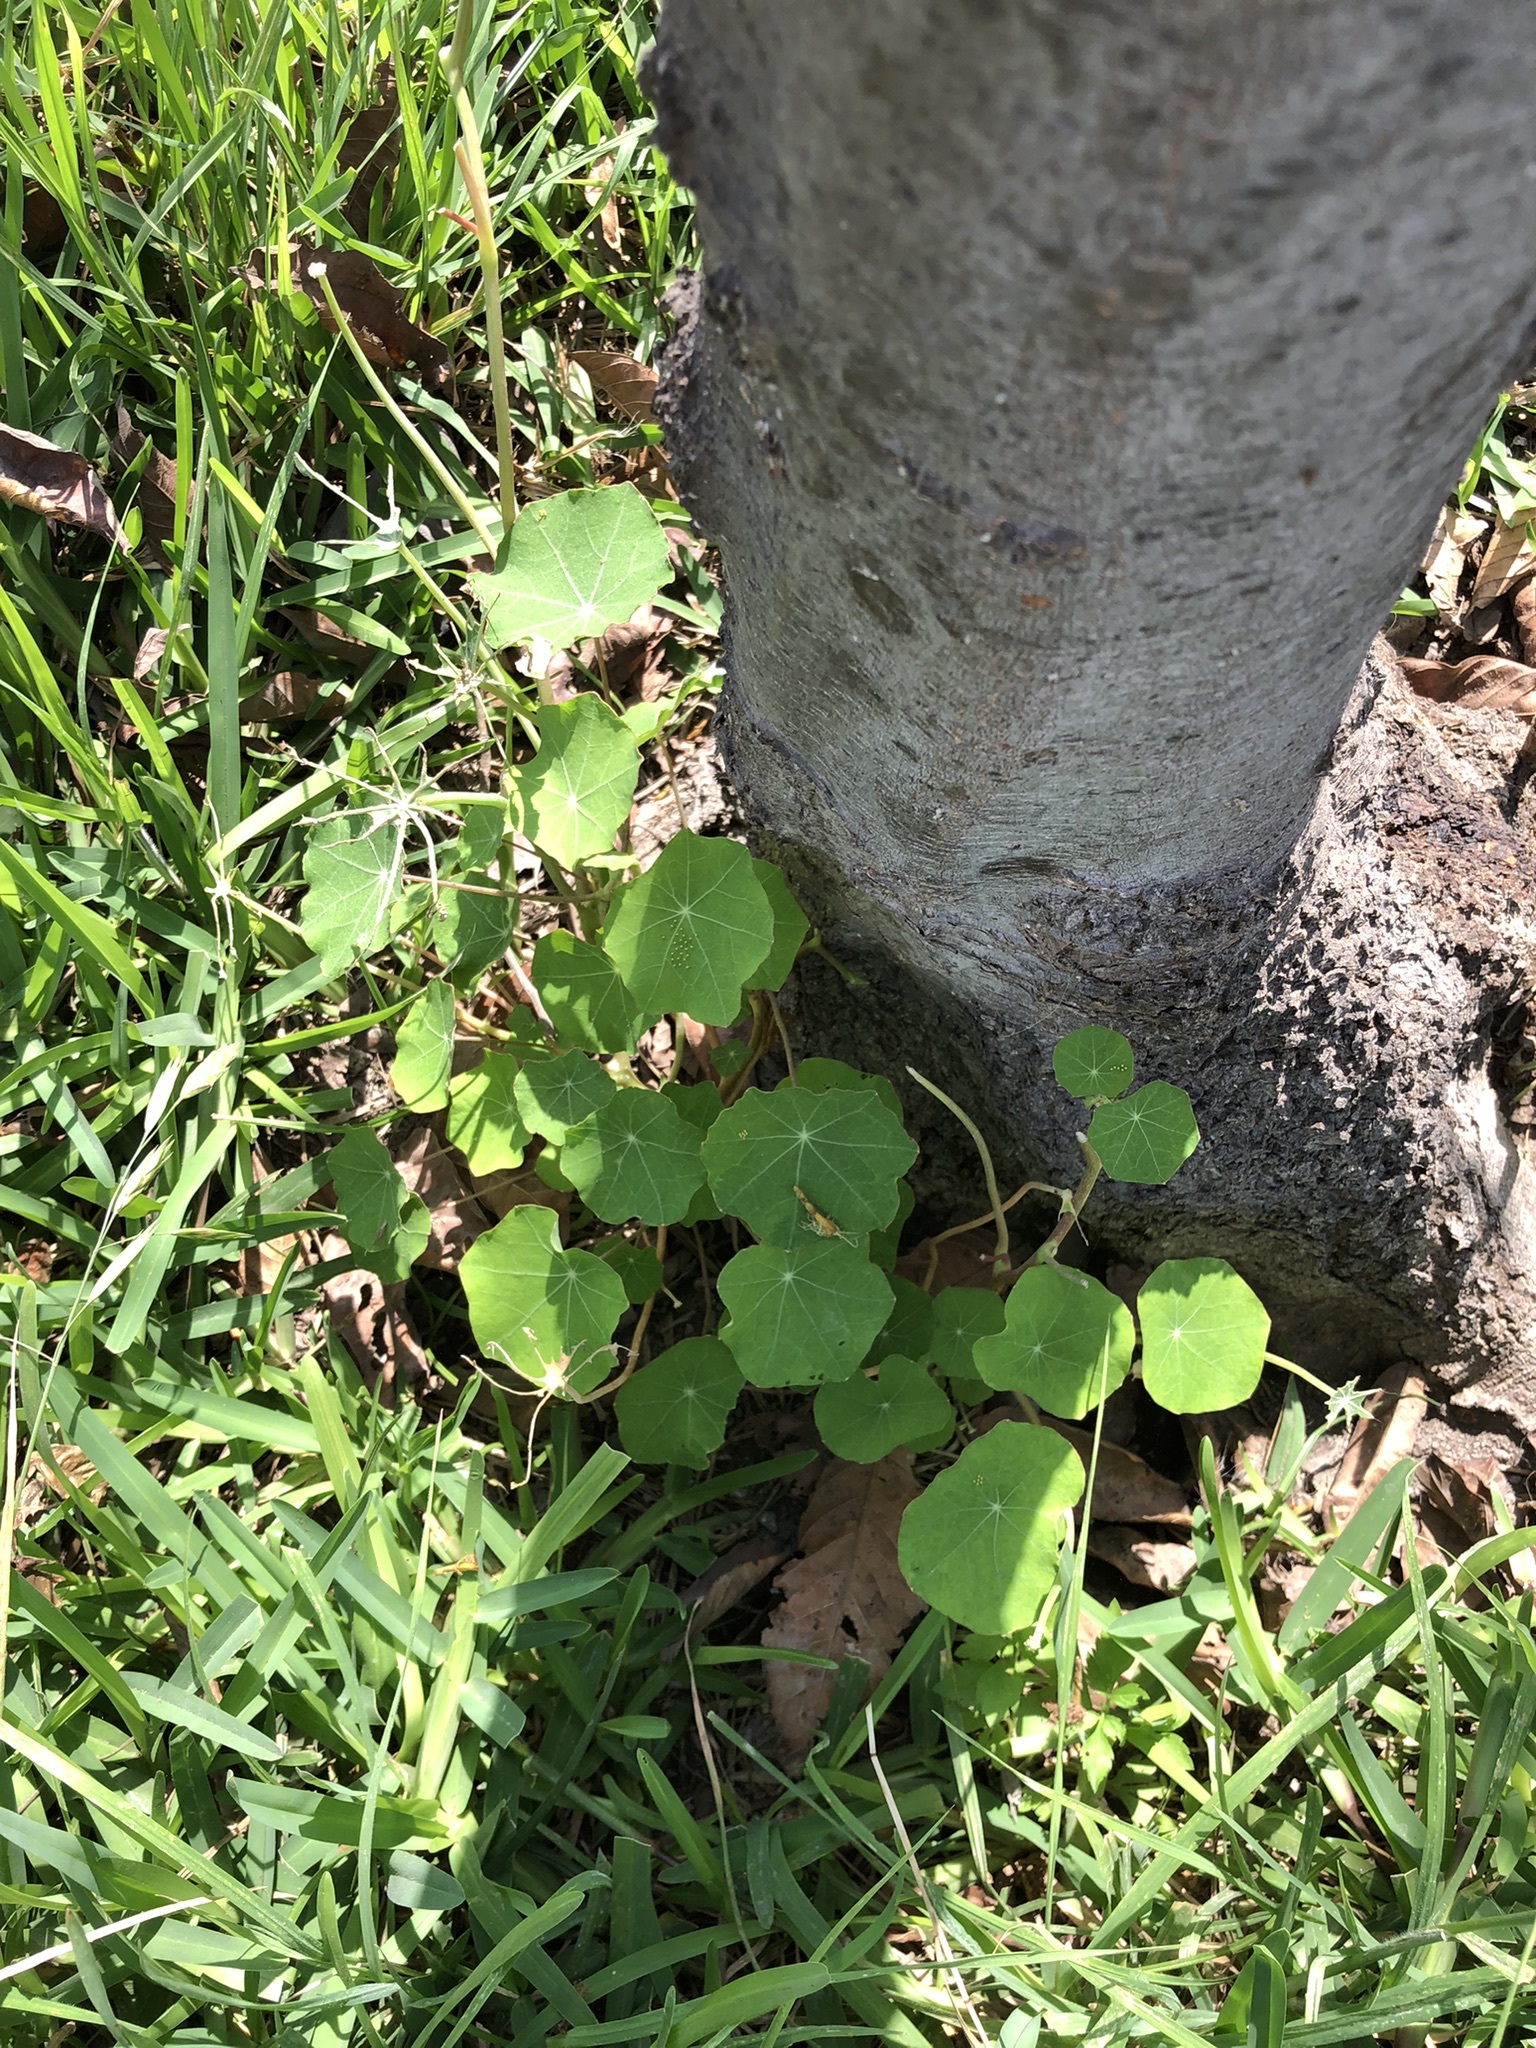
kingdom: Plantae
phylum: Tracheophyta
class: Magnoliopsida
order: Brassicales
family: Tropaeolaceae
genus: Tropaeolum
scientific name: Tropaeolum majus
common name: Nasturtium
